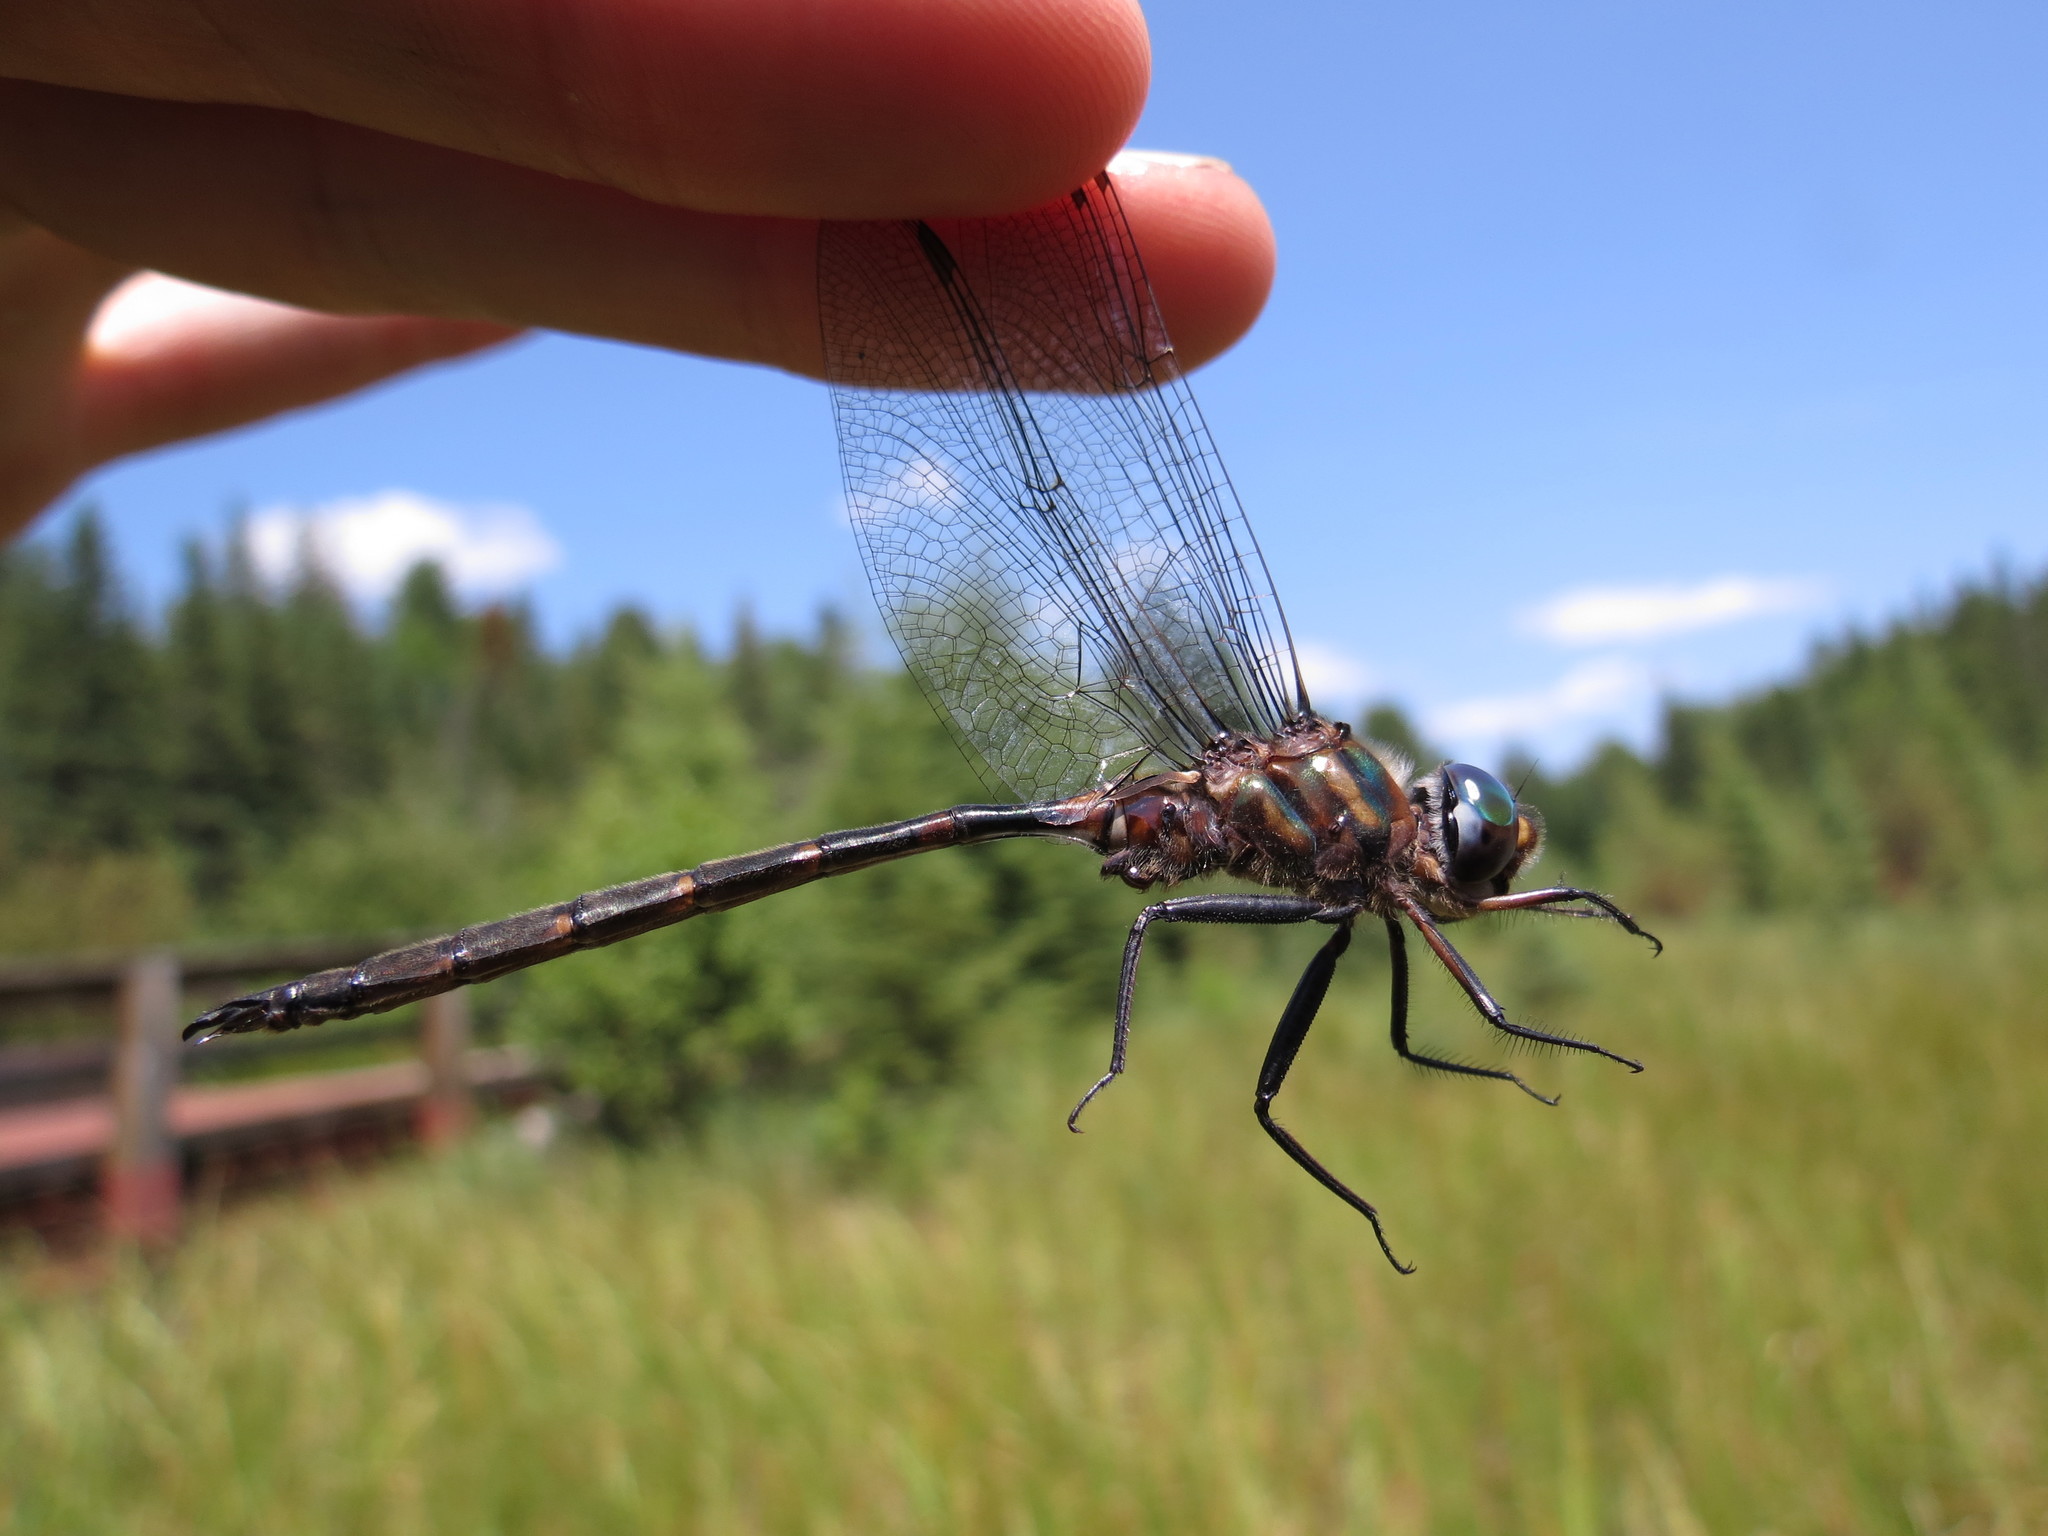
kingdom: Animalia
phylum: Arthropoda
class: Insecta
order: Odonata
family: Corduliidae
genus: Somatochlora
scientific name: Somatochlora incurvata
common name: Incurvate emerald
